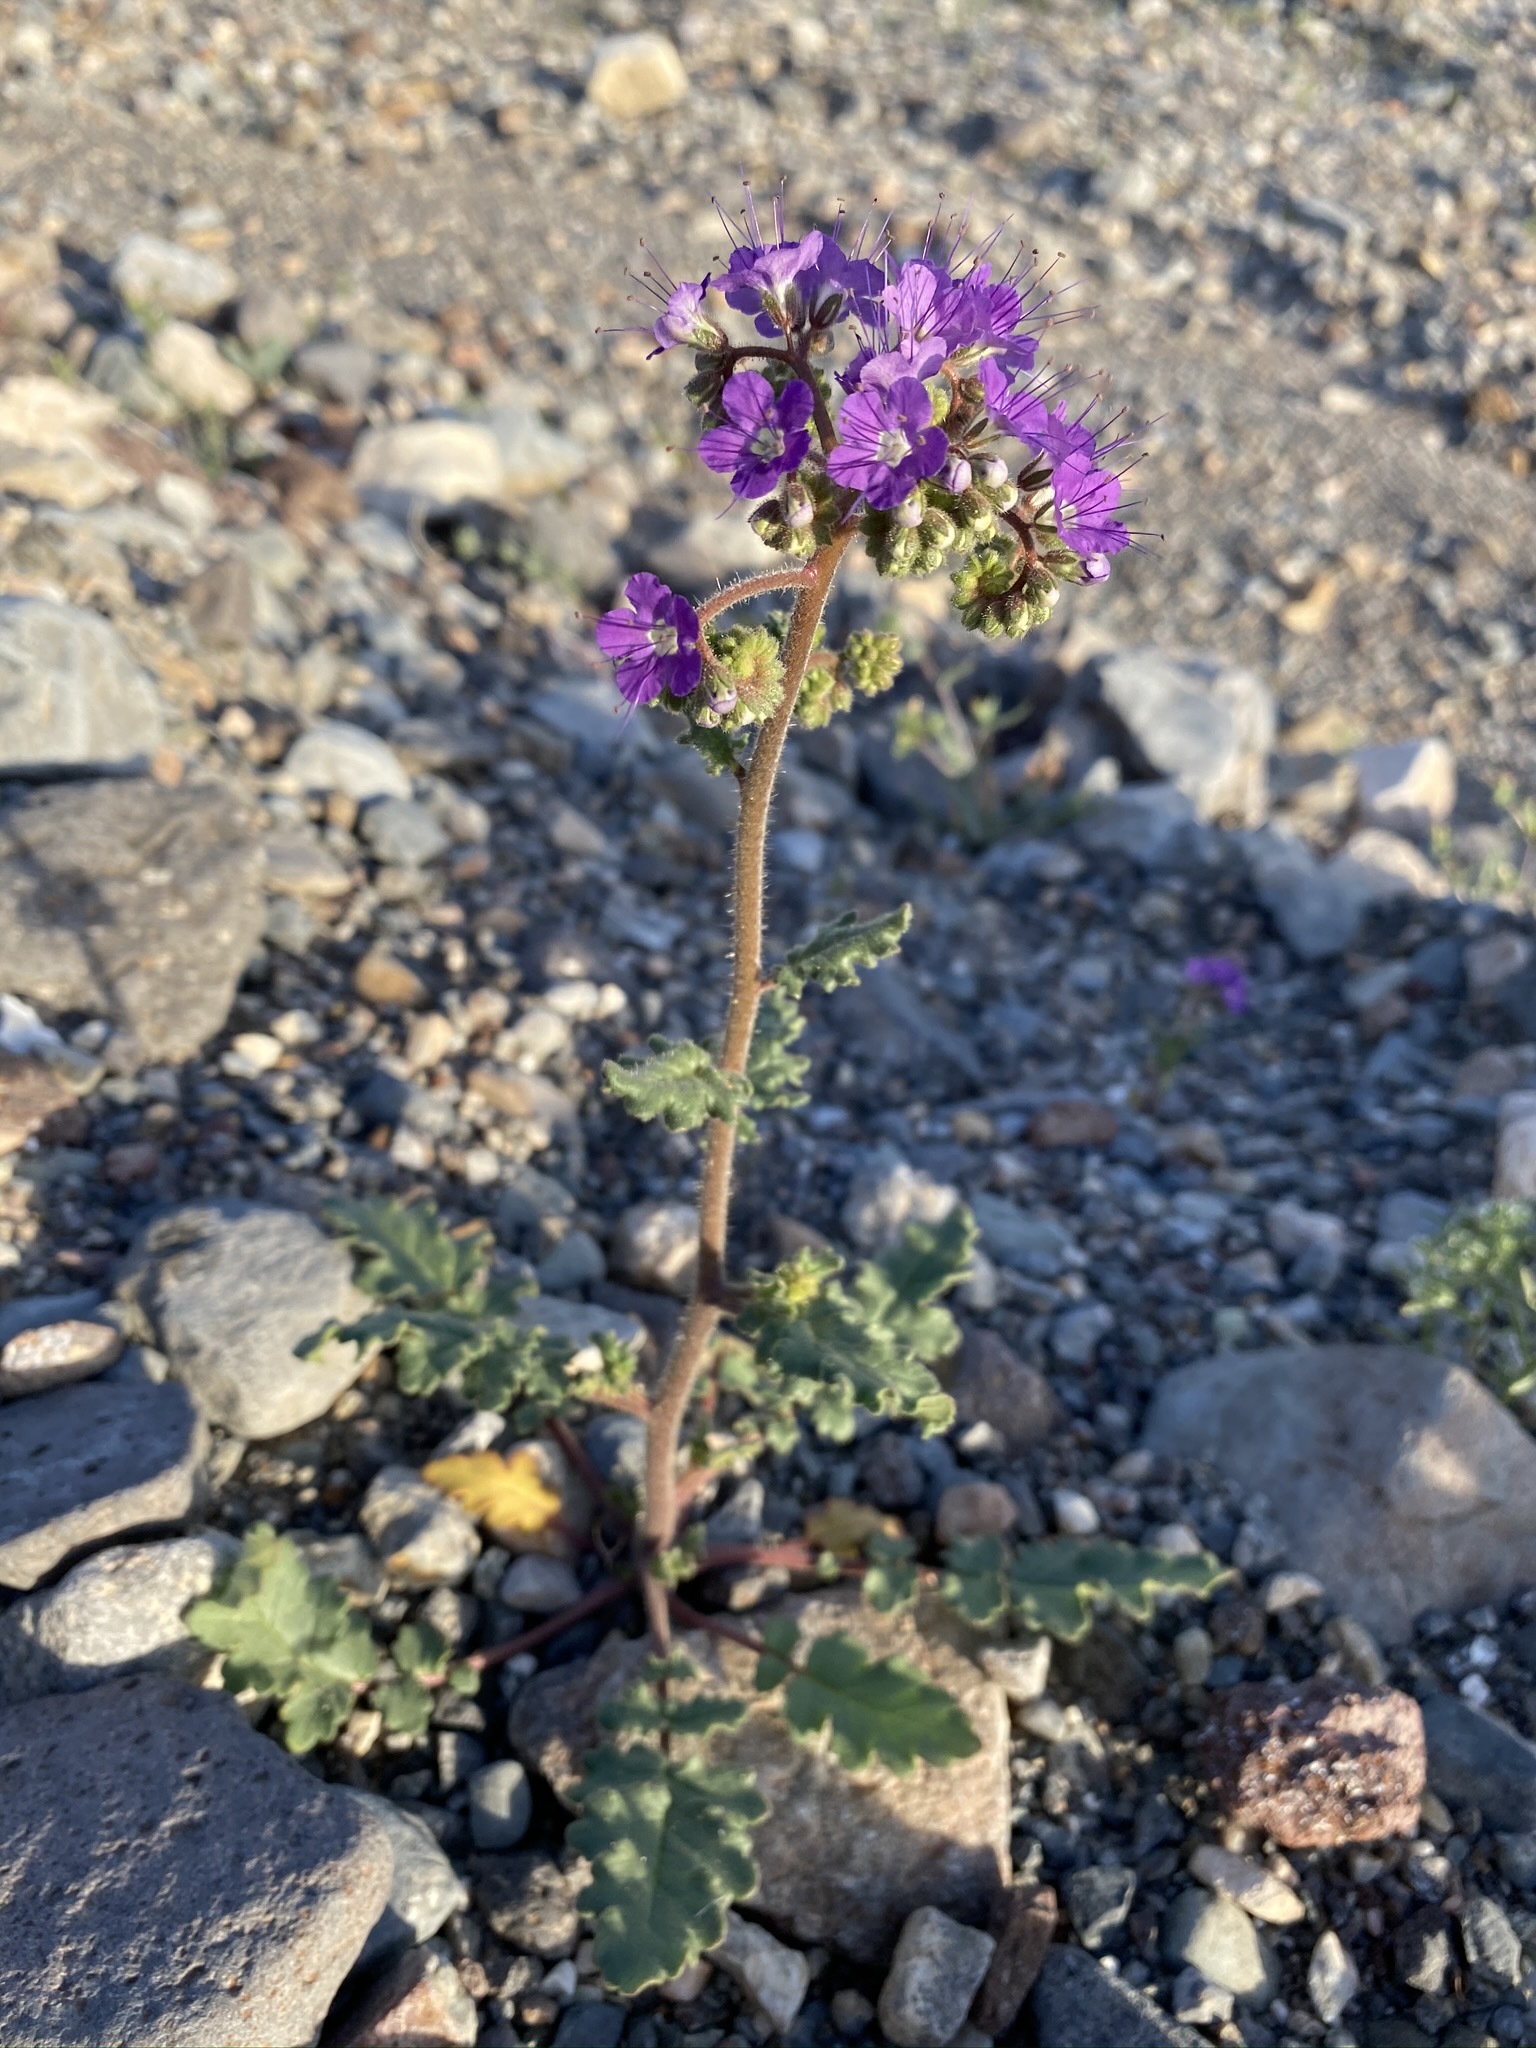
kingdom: Plantae
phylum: Tracheophyta
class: Magnoliopsida
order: Boraginales
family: Hydrophyllaceae
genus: Phacelia
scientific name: Phacelia crenulata
